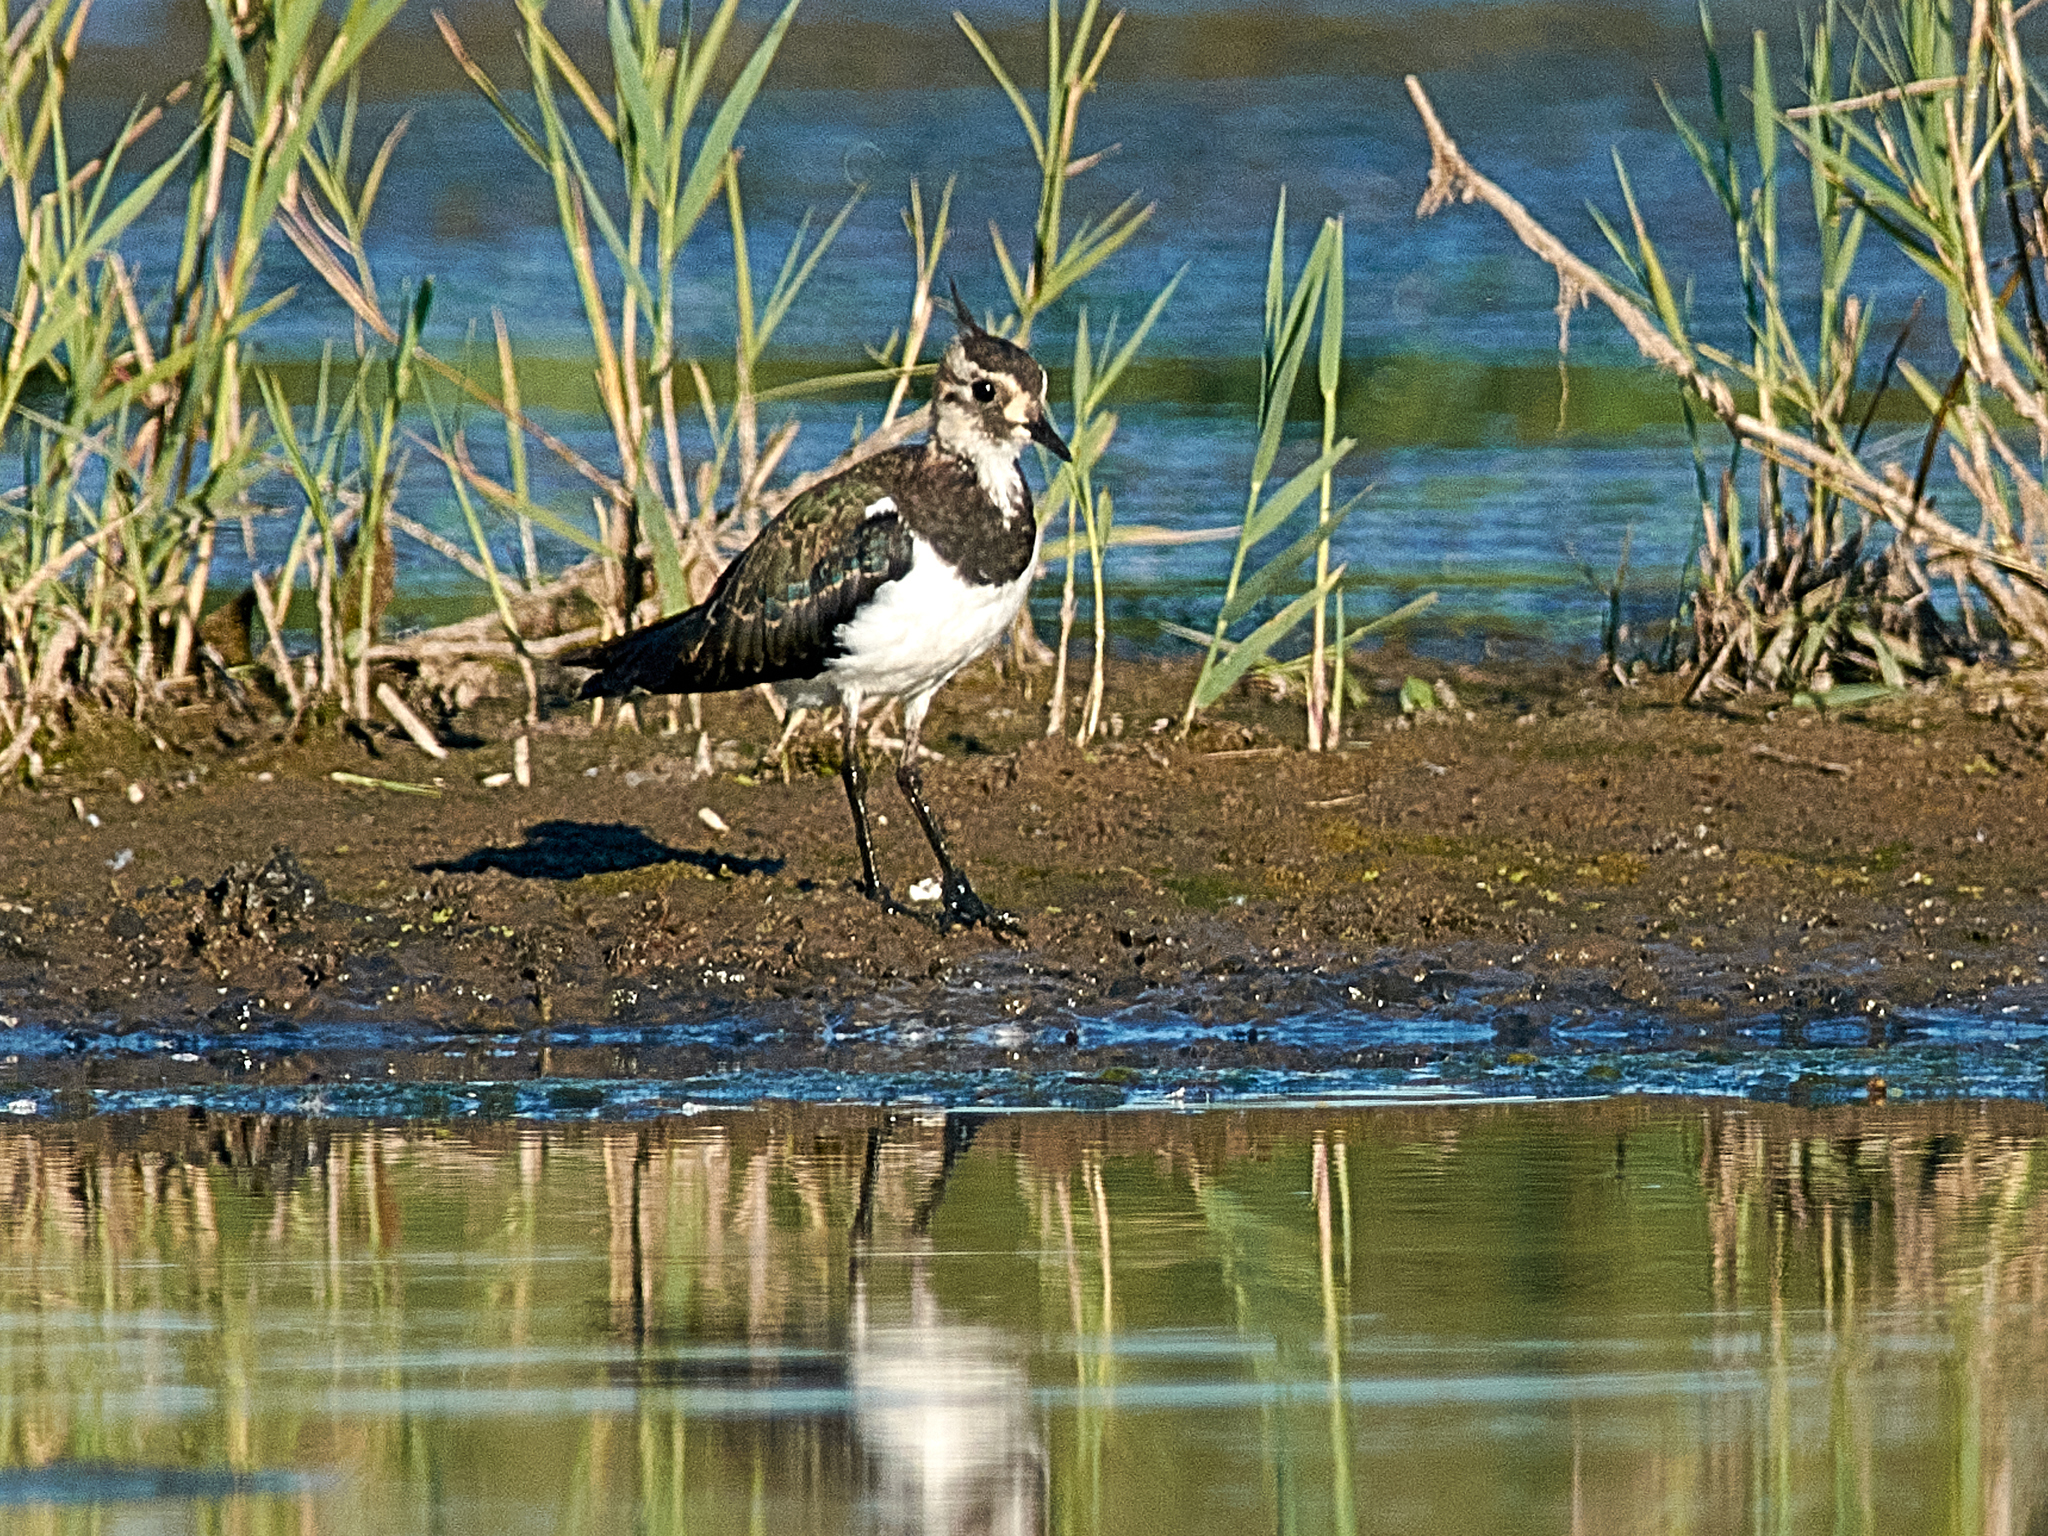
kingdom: Animalia
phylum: Chordata
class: Aves
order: Charadriiformes
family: Charadriidae
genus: Vanellus
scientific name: Vanellus vanellus
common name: Northern lapwing
